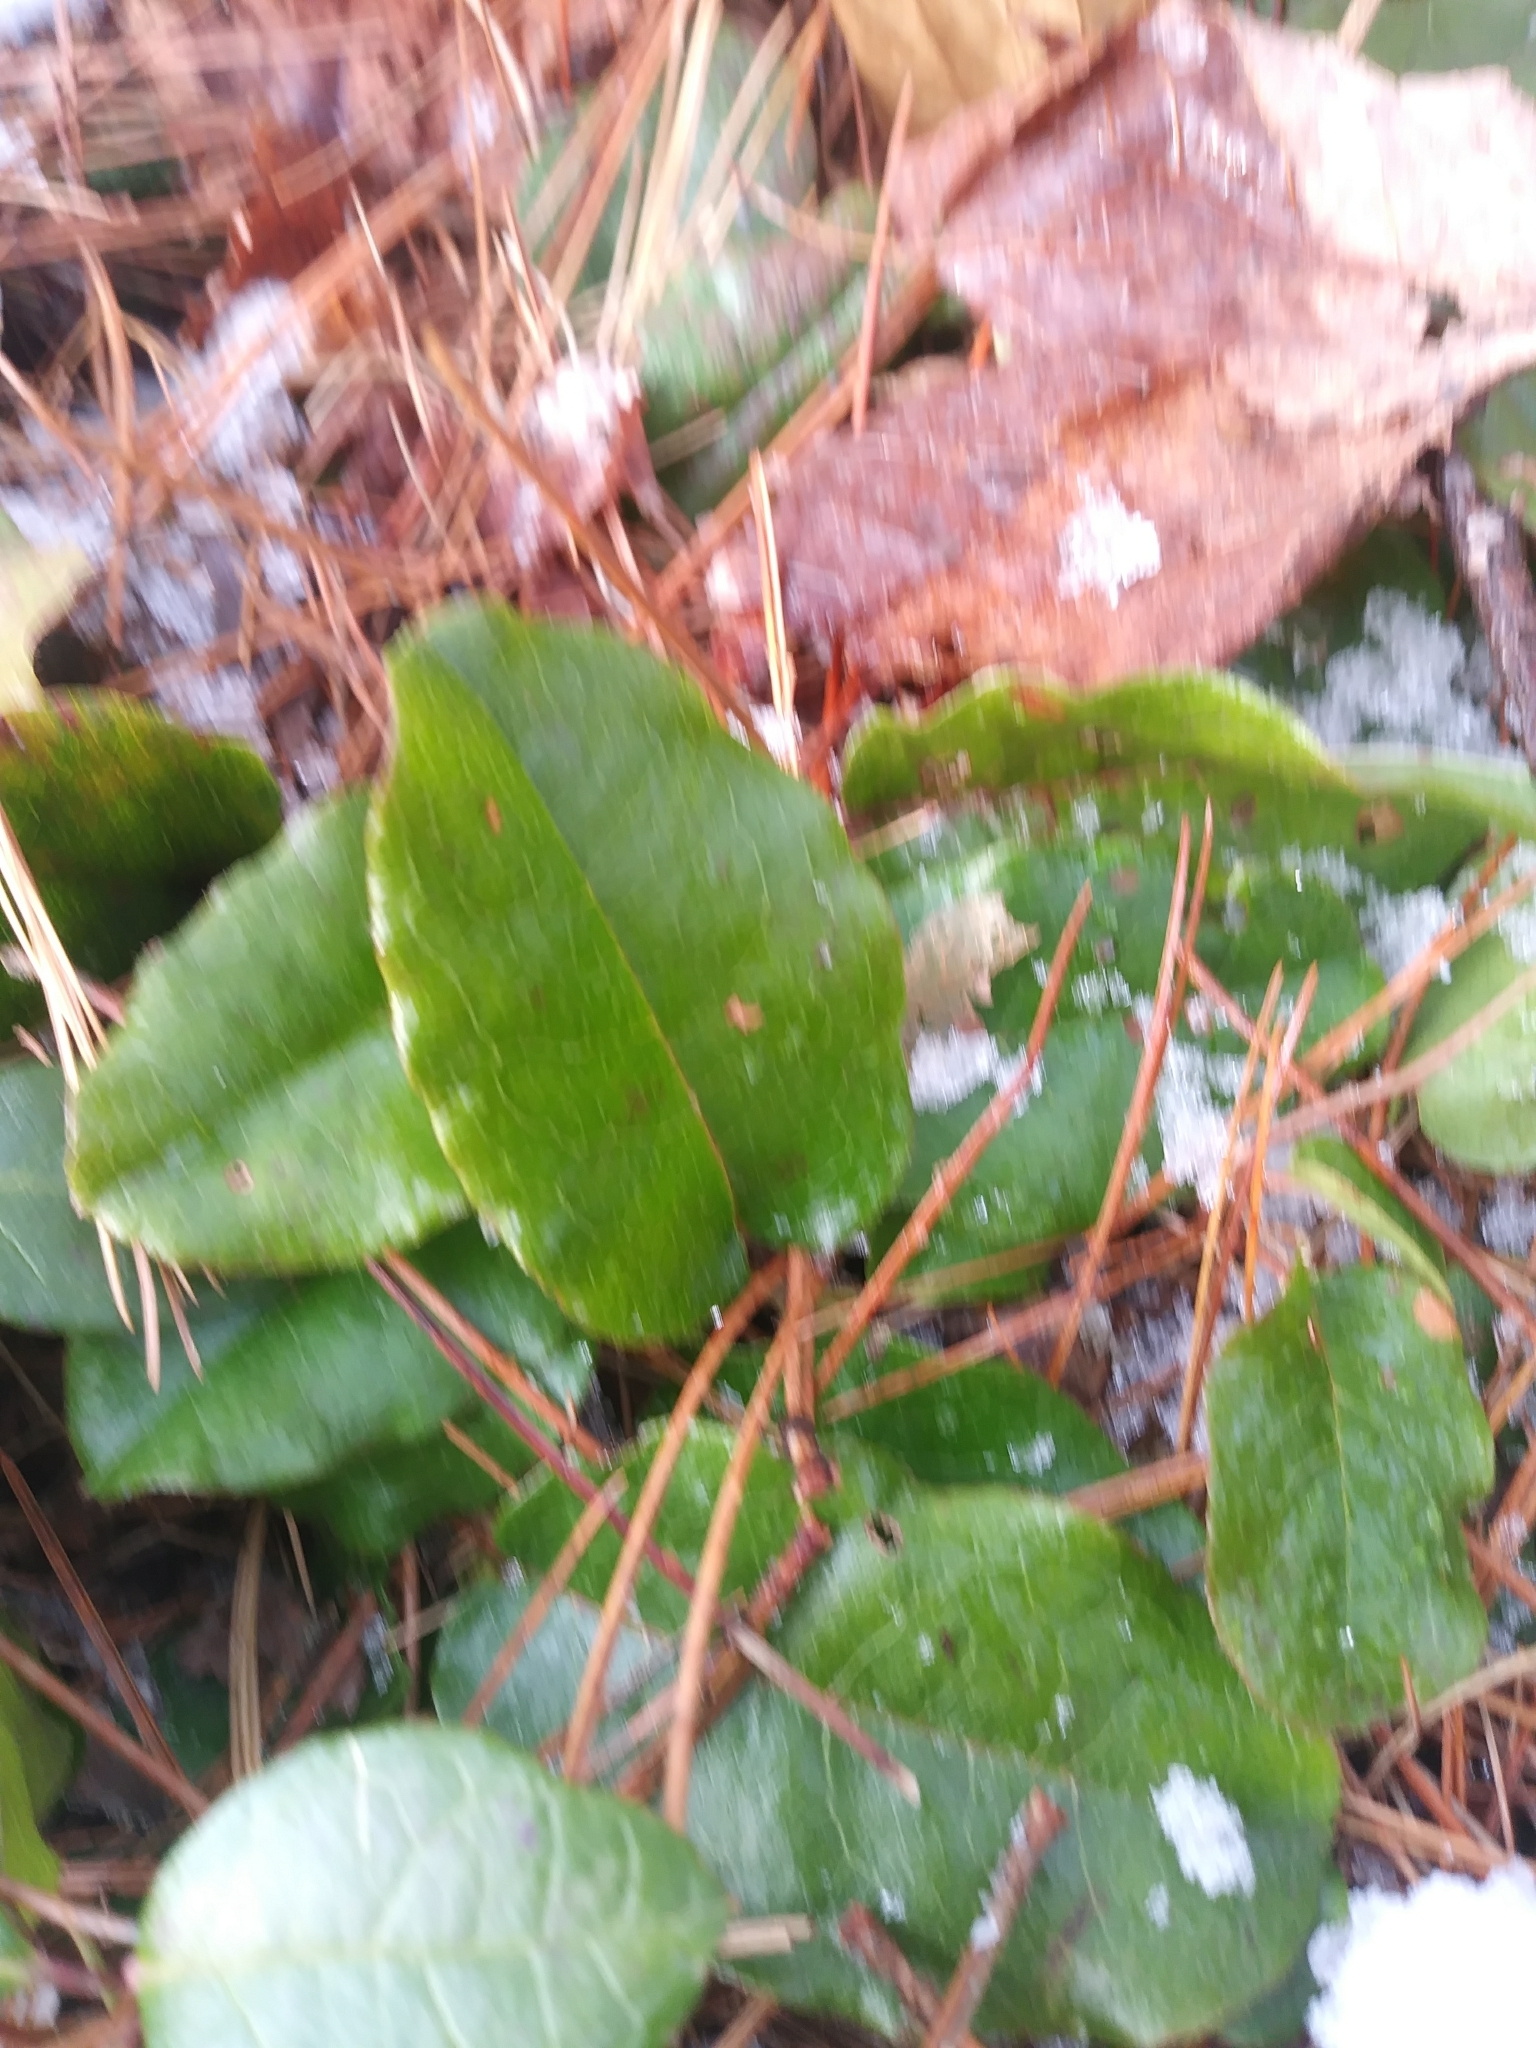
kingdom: Plantae
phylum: Tracheophyta
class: Magnoliopsida
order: Ericales
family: Ericaceae
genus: Epigaea
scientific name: Epigaea repens
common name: Gravelroot
